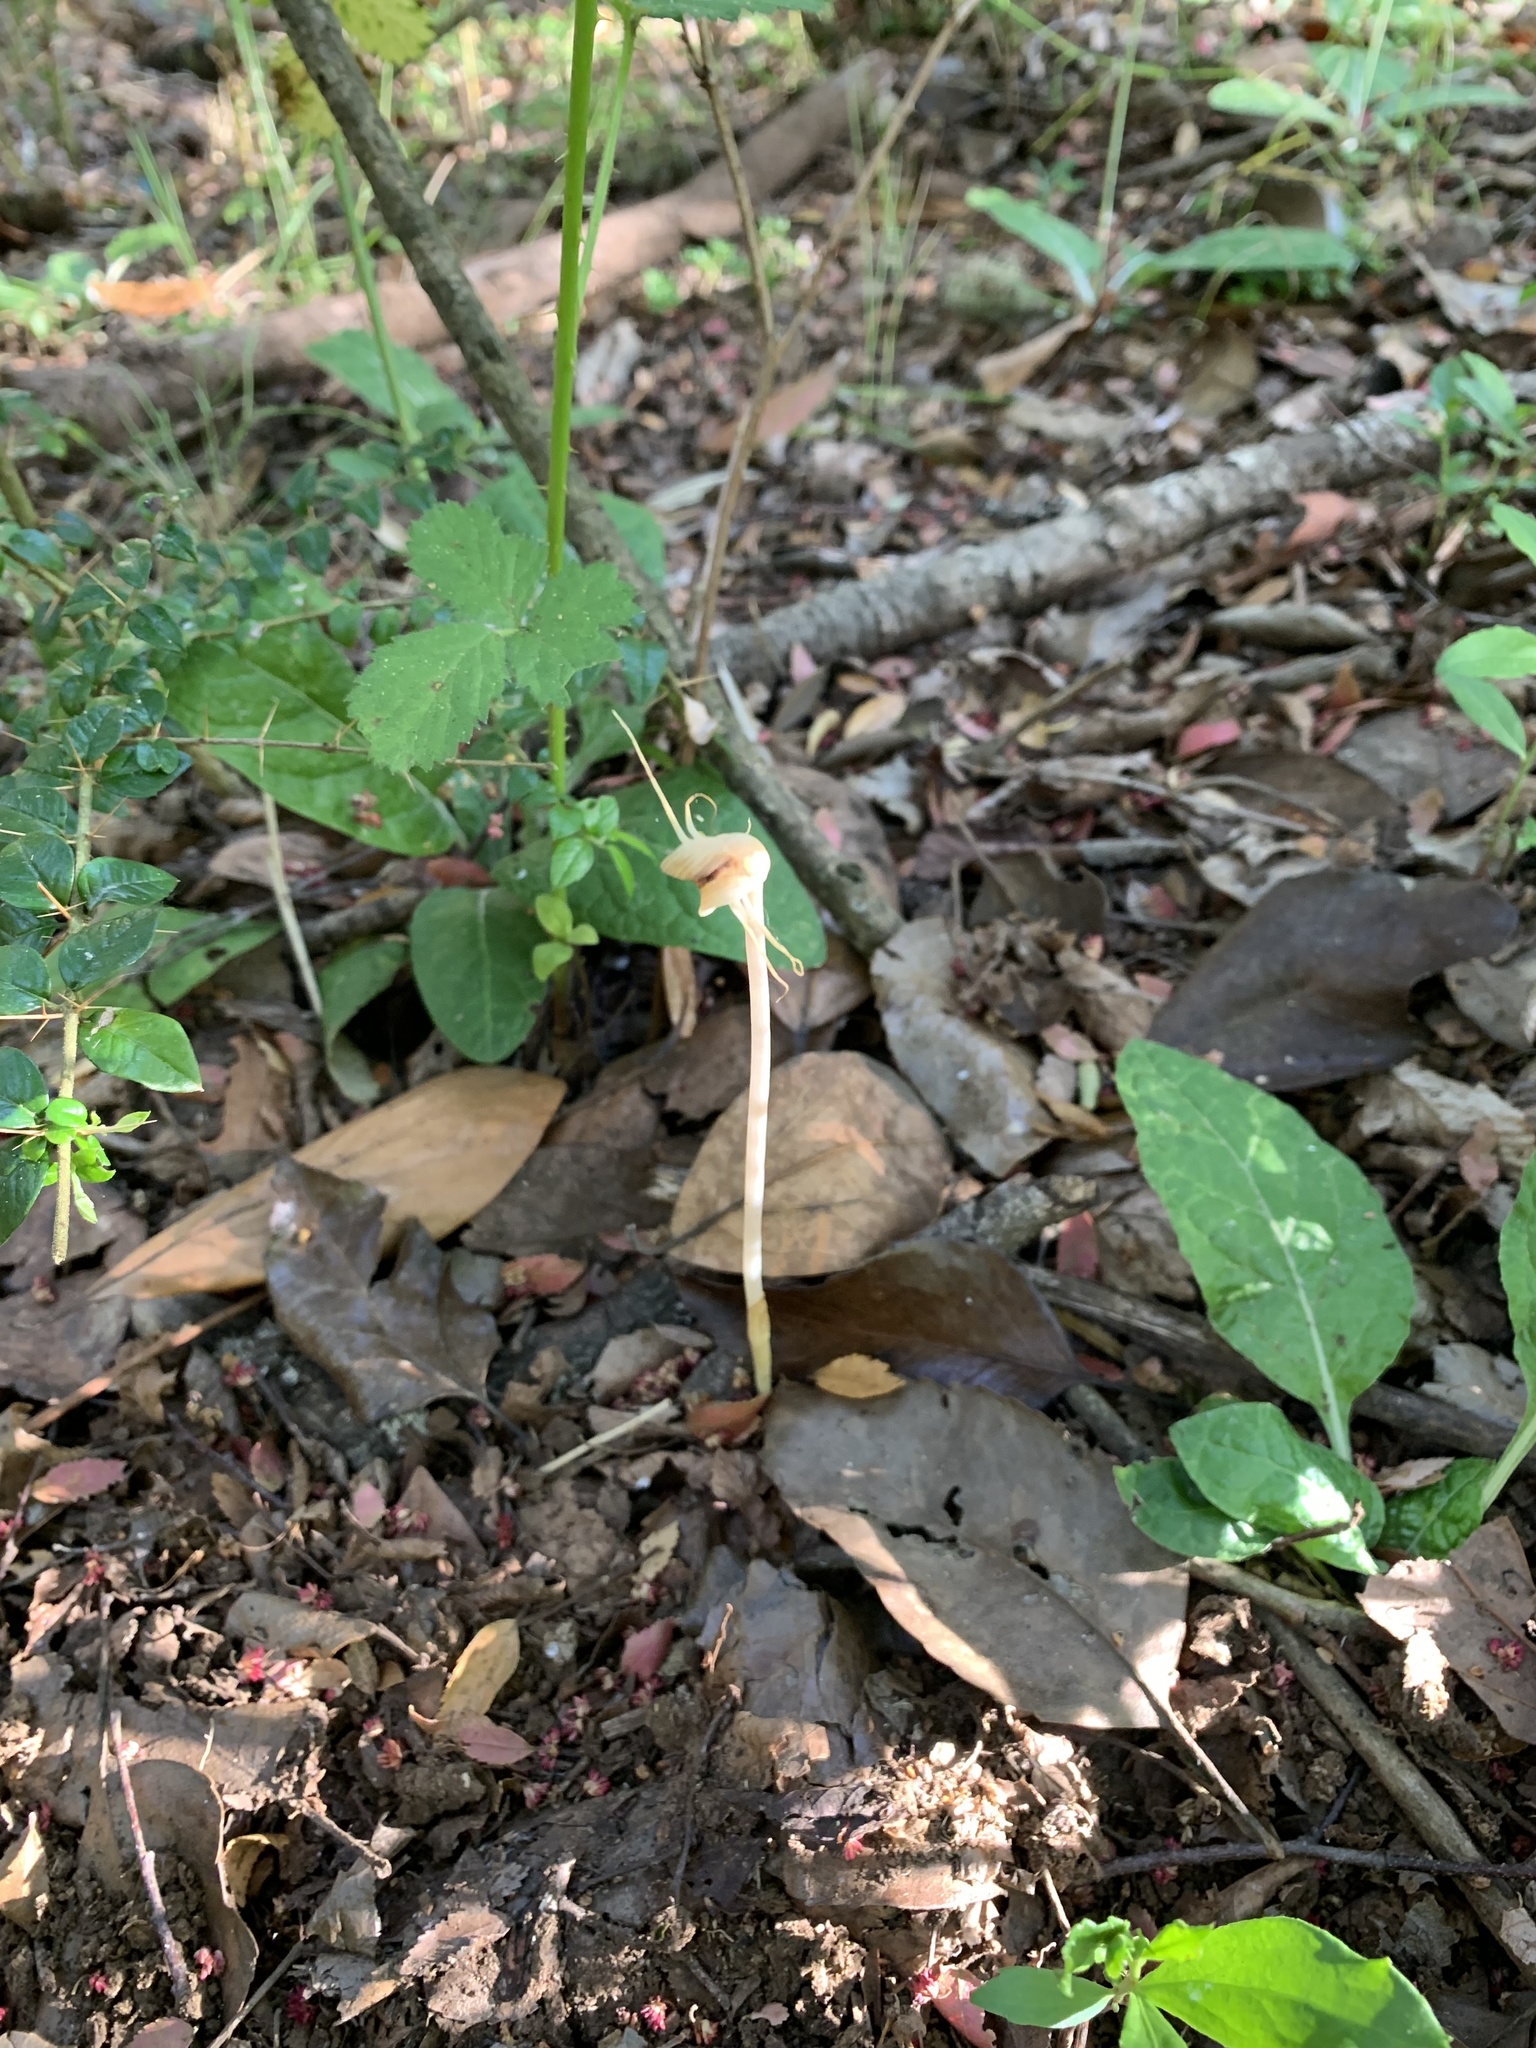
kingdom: Plantae
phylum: Tracheophyta
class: Liliopsida
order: Liliales
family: Corsiaceae
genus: Arachnitis
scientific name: Arachnitis uniflora
